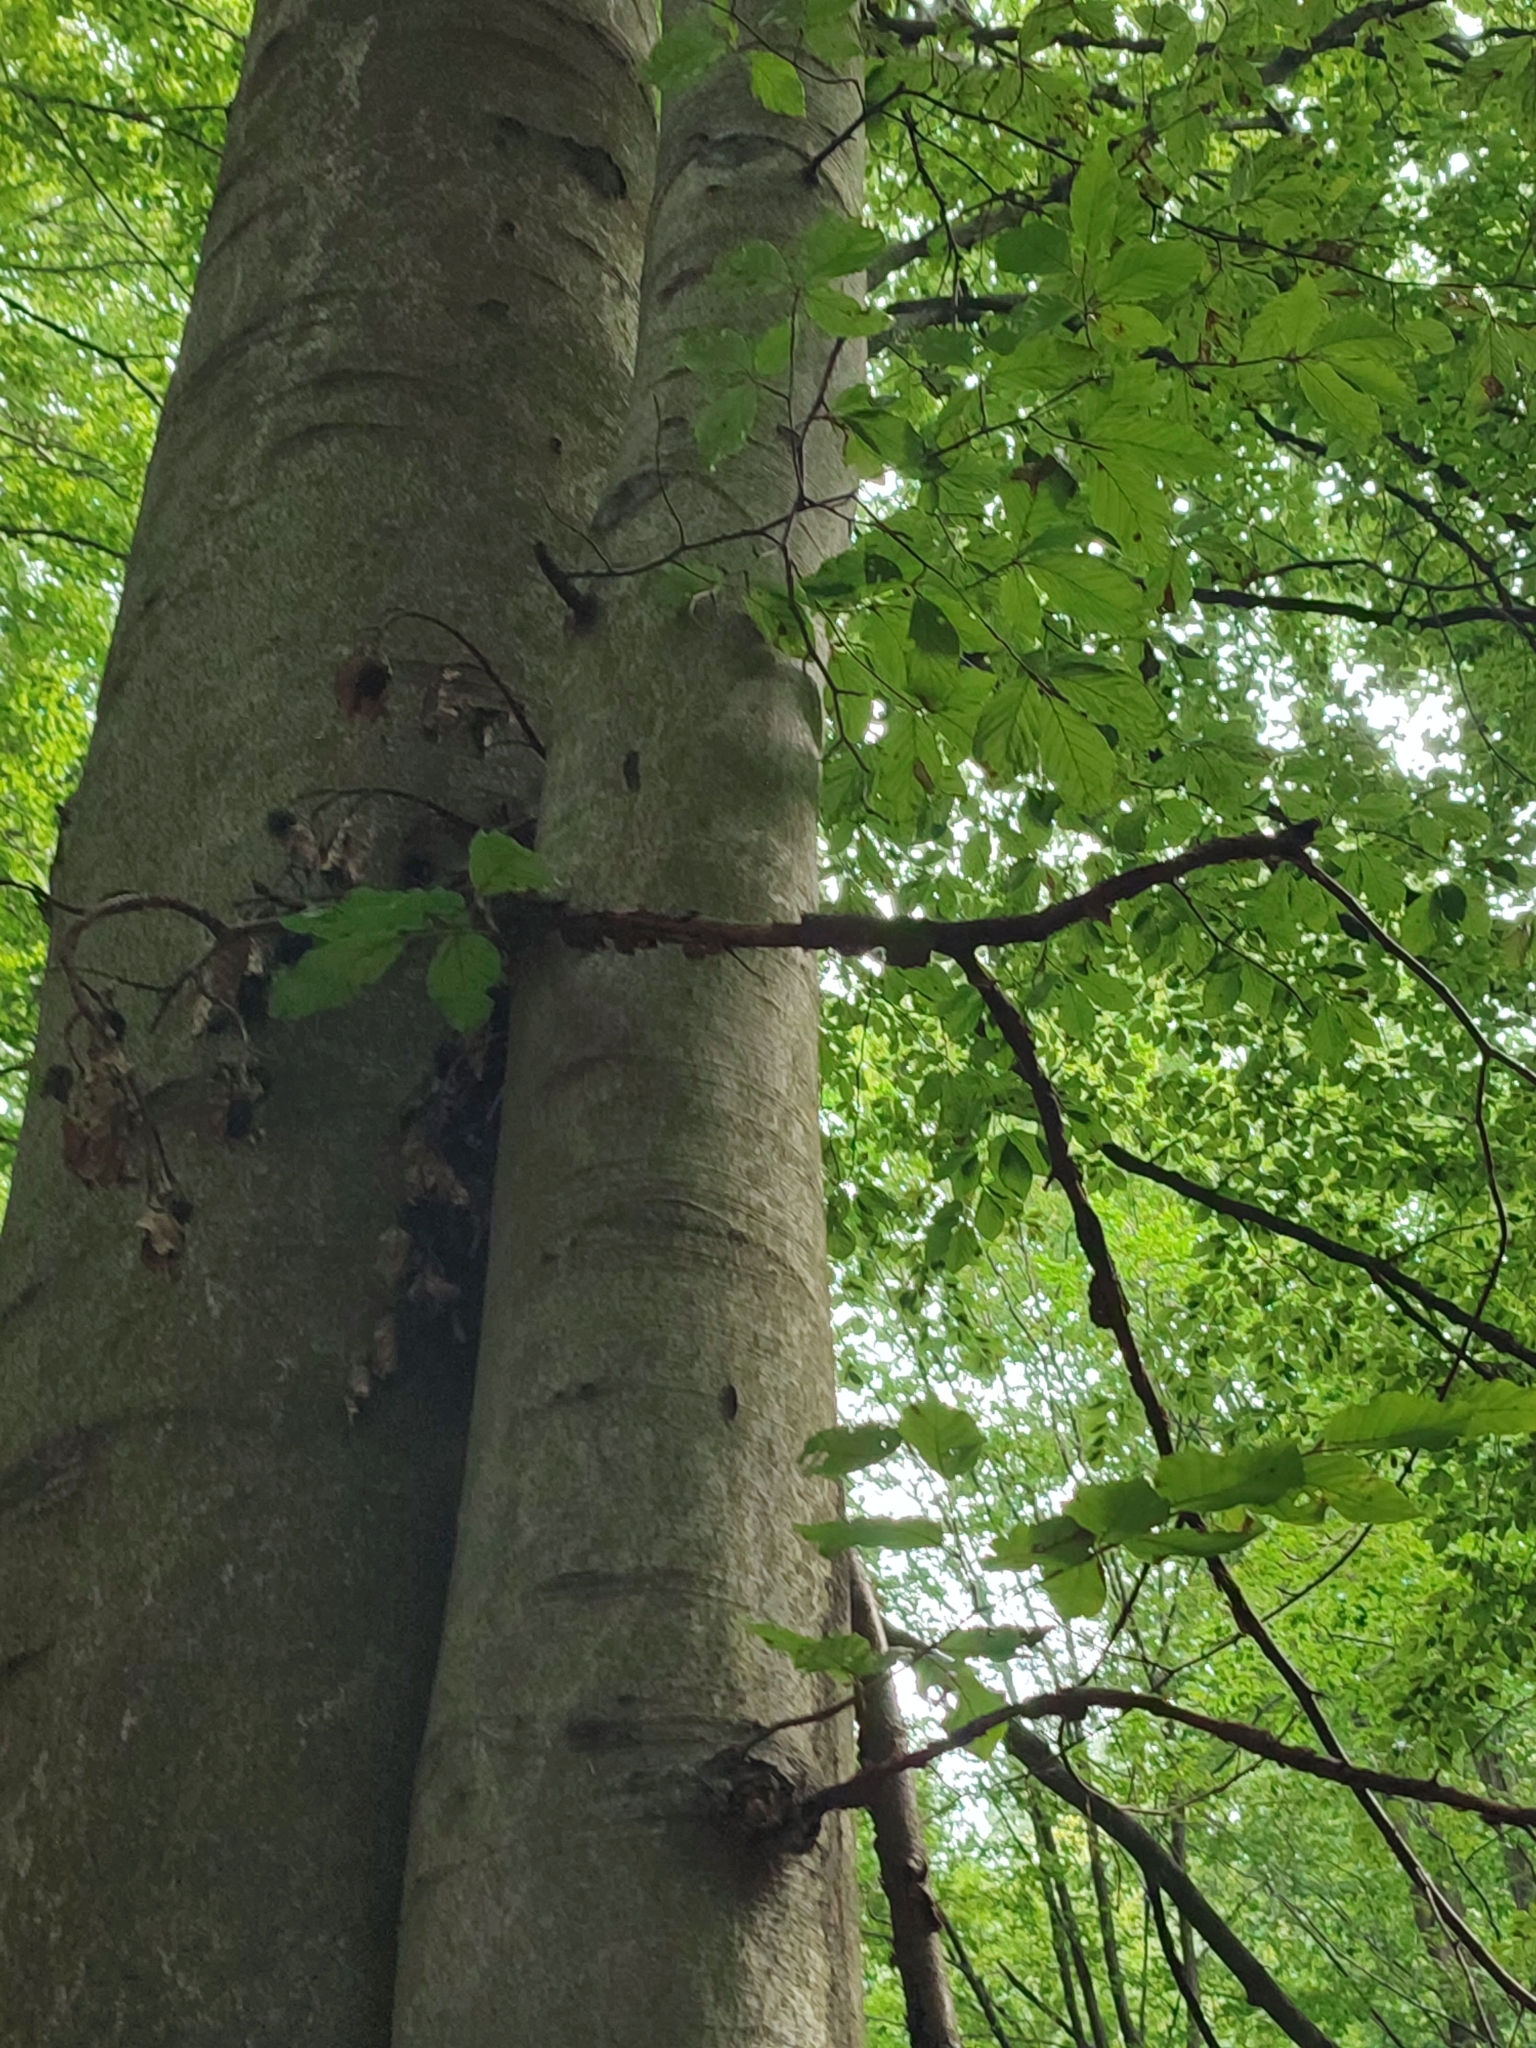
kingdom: Plantae
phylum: Tracheophyta
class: Magnoliopsida
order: Fagales
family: Fagaceae
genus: Fagus
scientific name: Fagus sylvatica
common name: Beech
